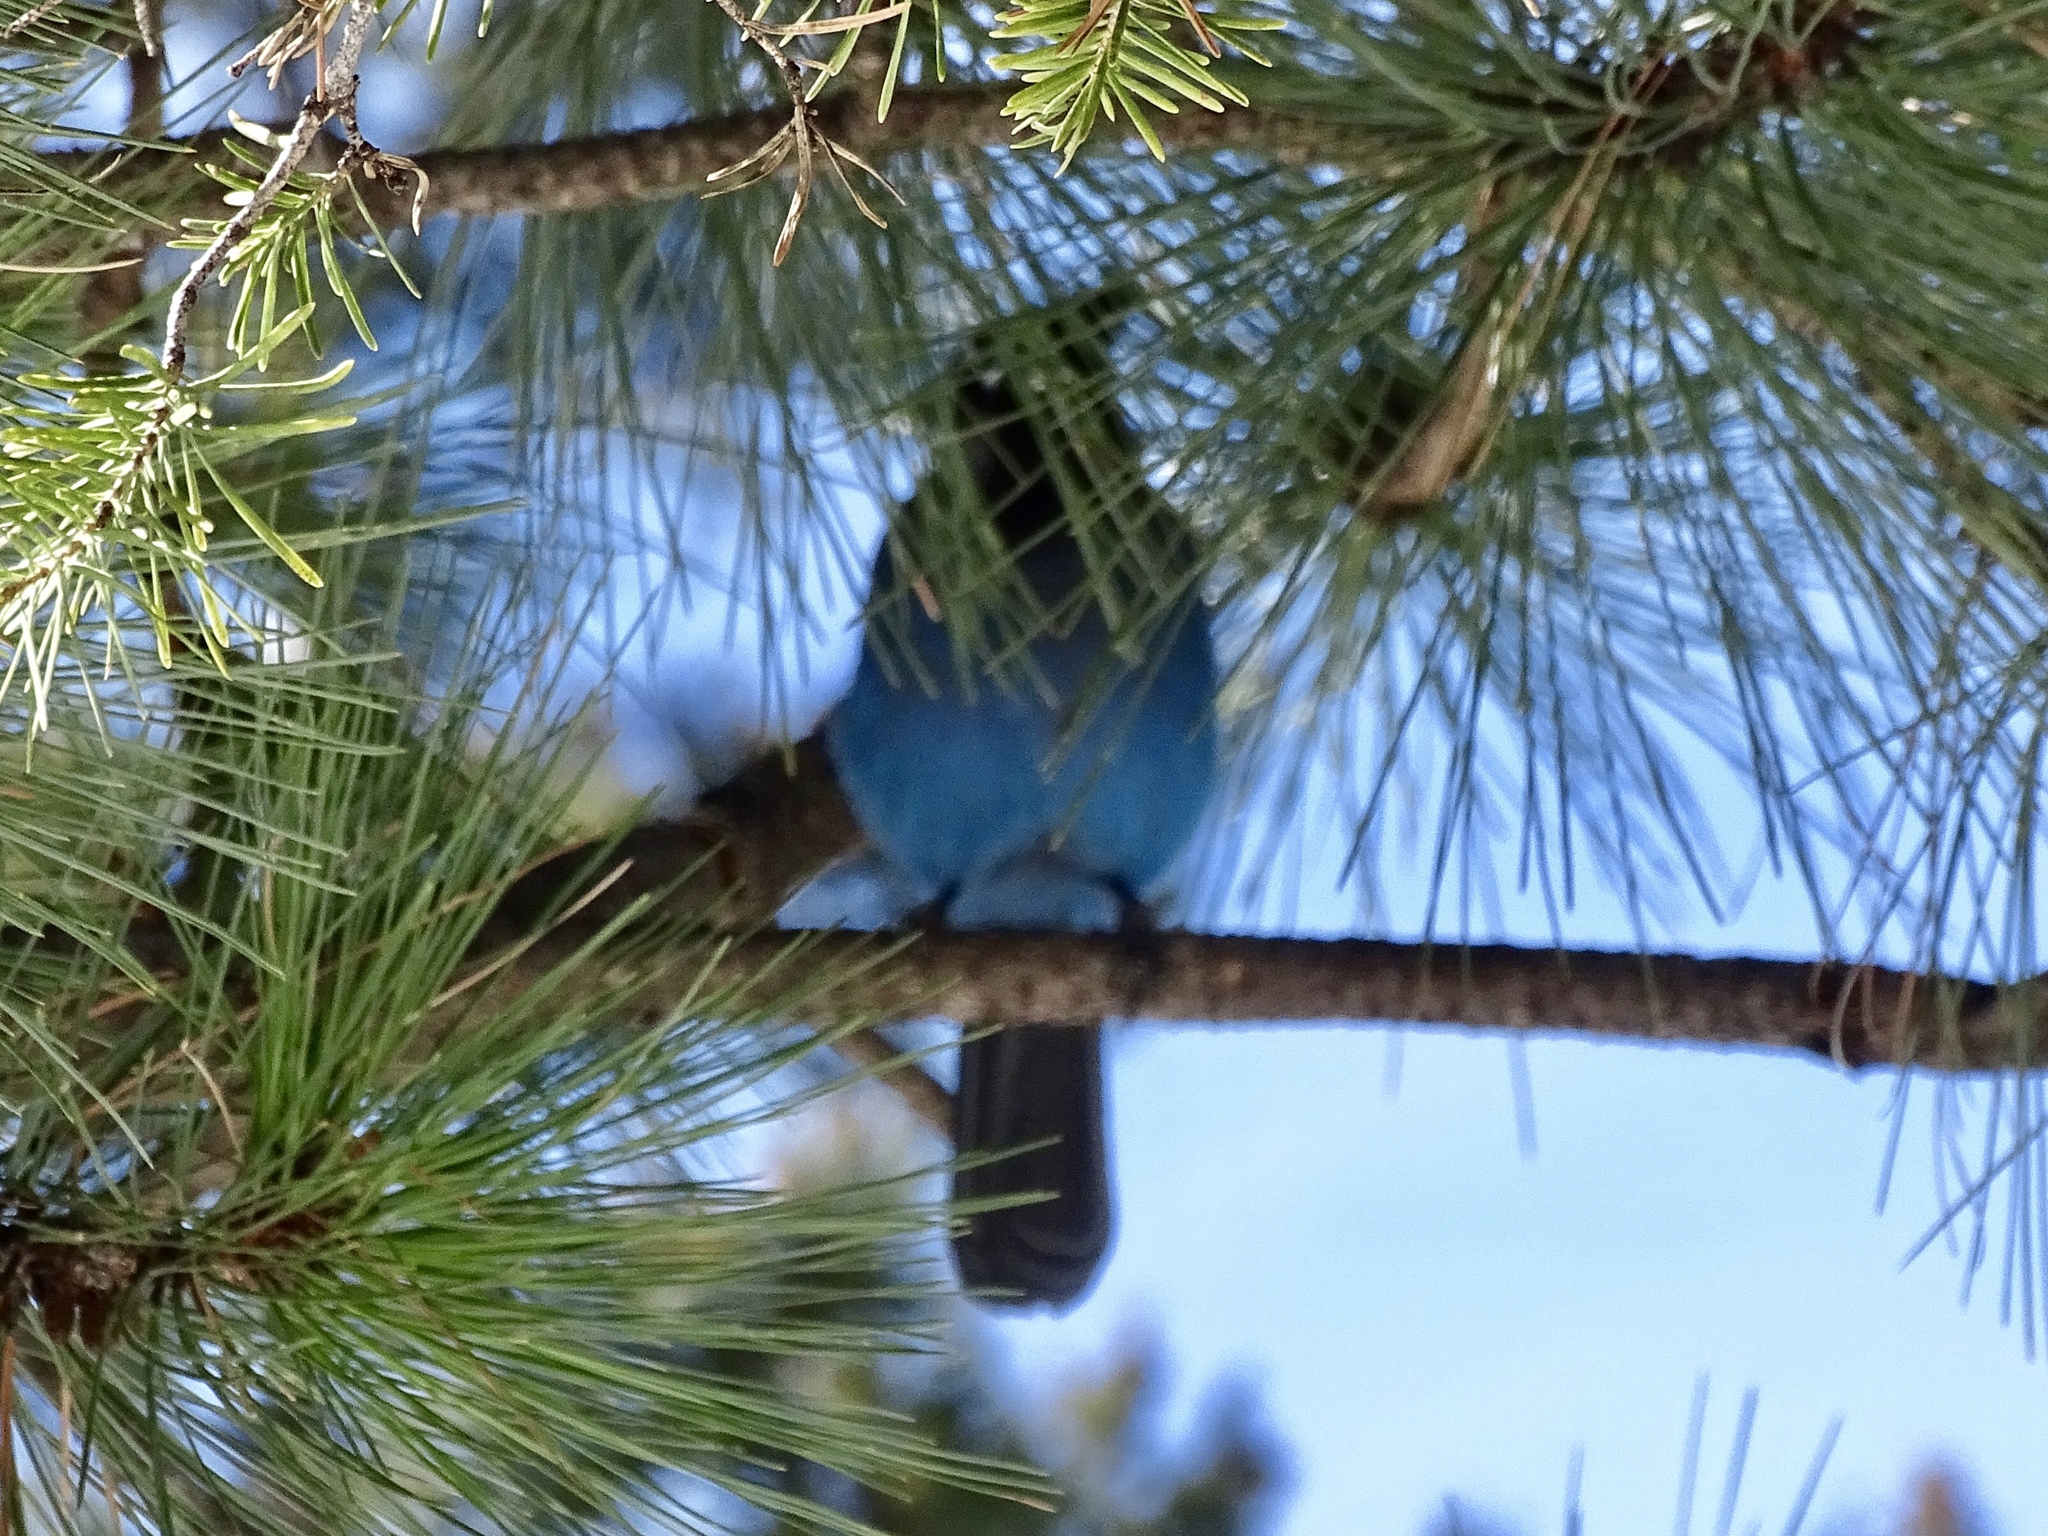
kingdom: Animalia
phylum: Chordata
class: Aves
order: Passeriformes
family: Corvidae
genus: Cyanocitta
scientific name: Cyanocitta stelleri
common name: Steller's jay
